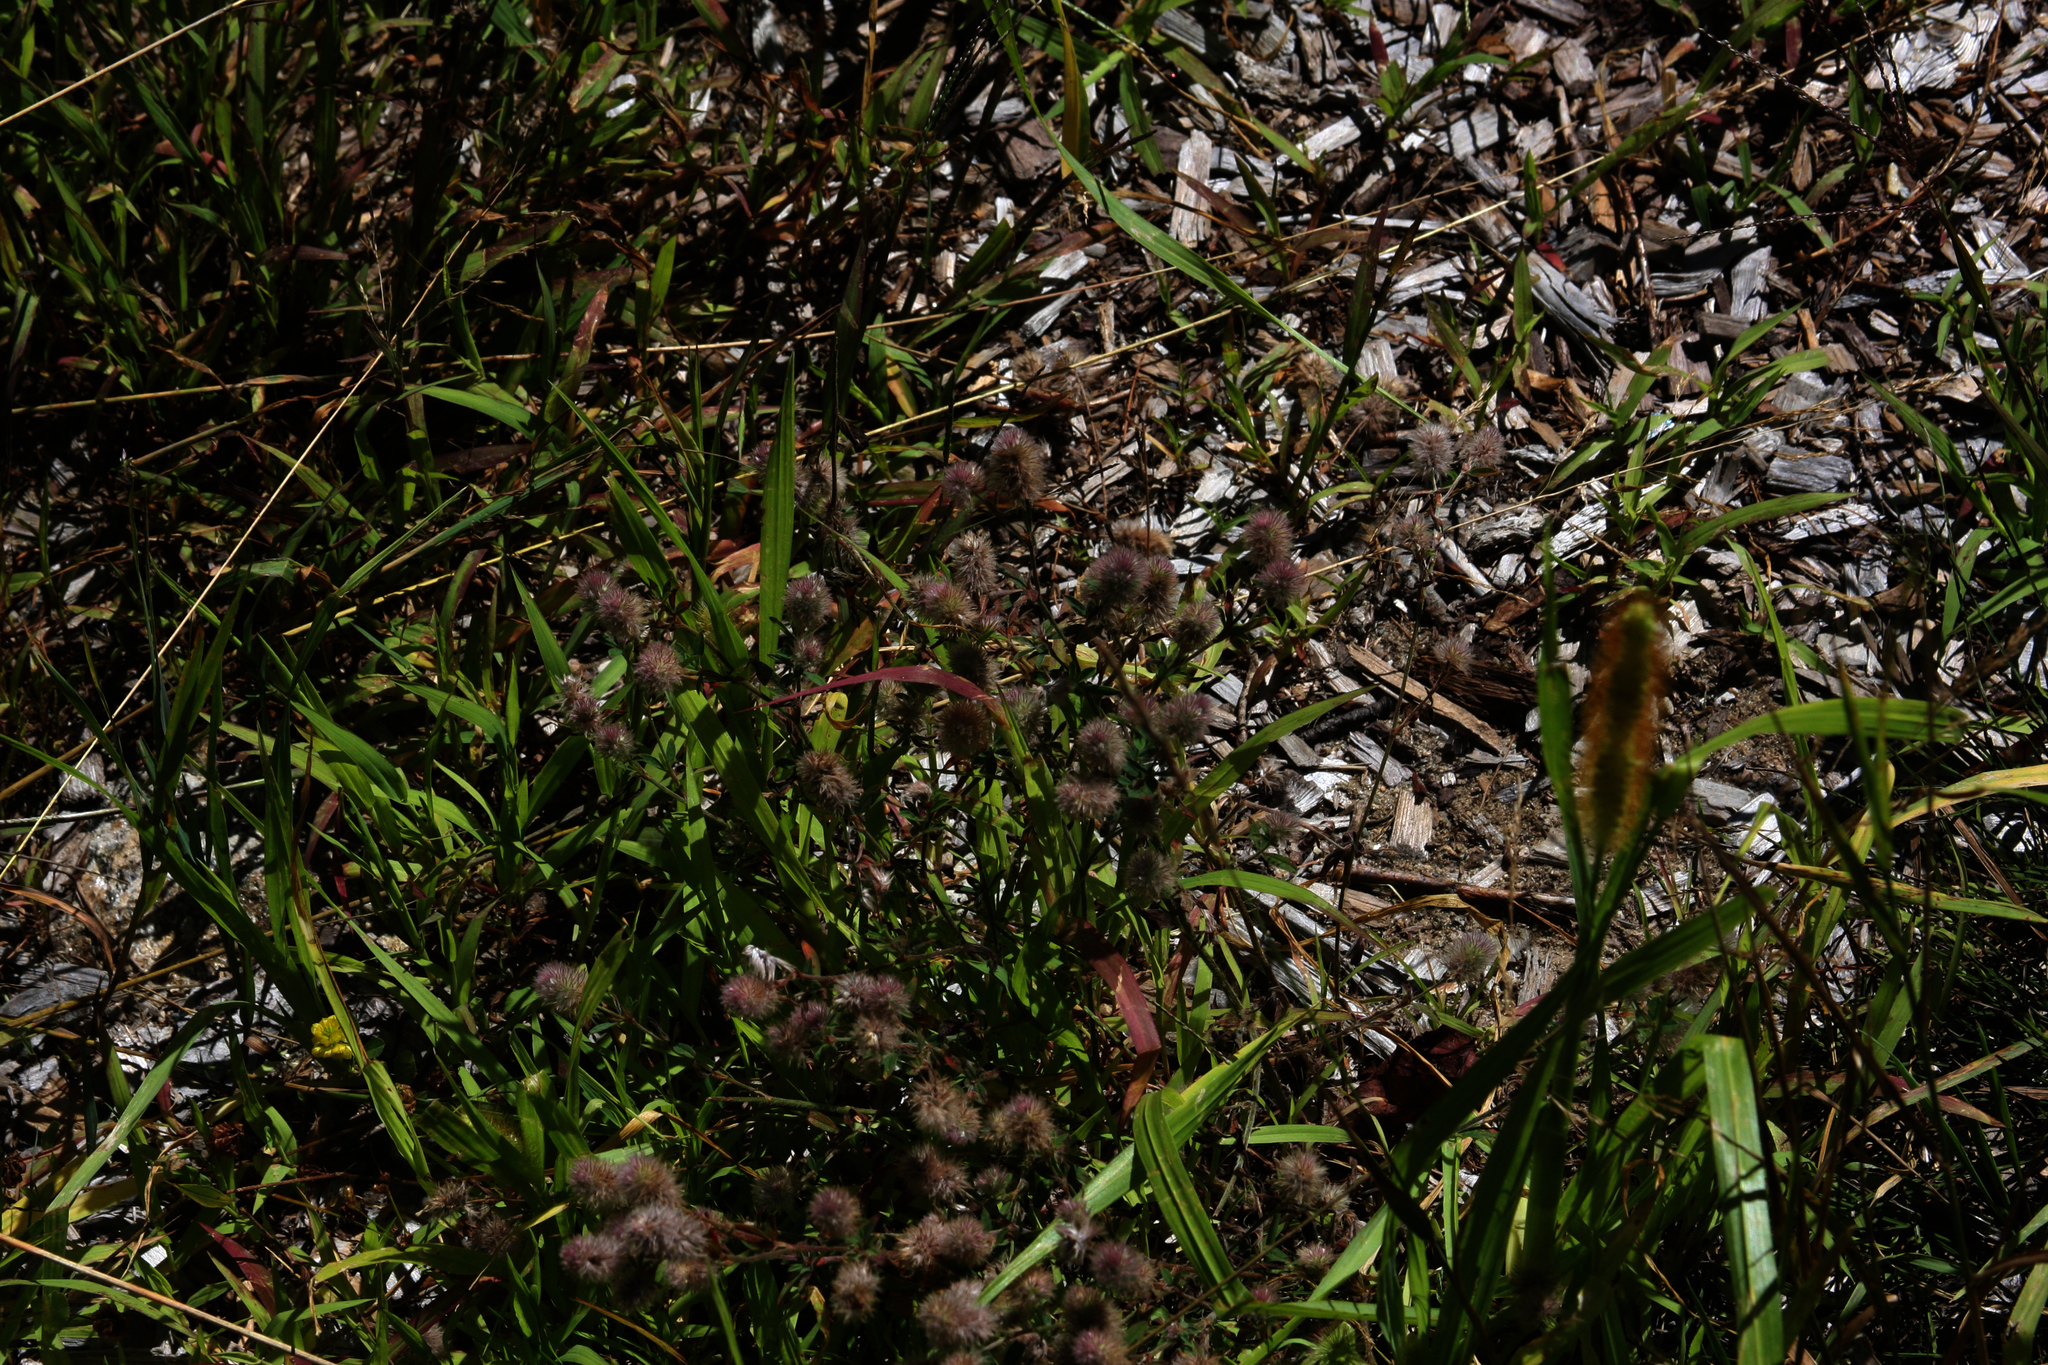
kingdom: Plantae
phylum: Tracheophyta
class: Magnoliopsida
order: Fabales
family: Fabaceae
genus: Trifolium
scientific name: Trifolium arvense
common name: Hare's-foot clover
